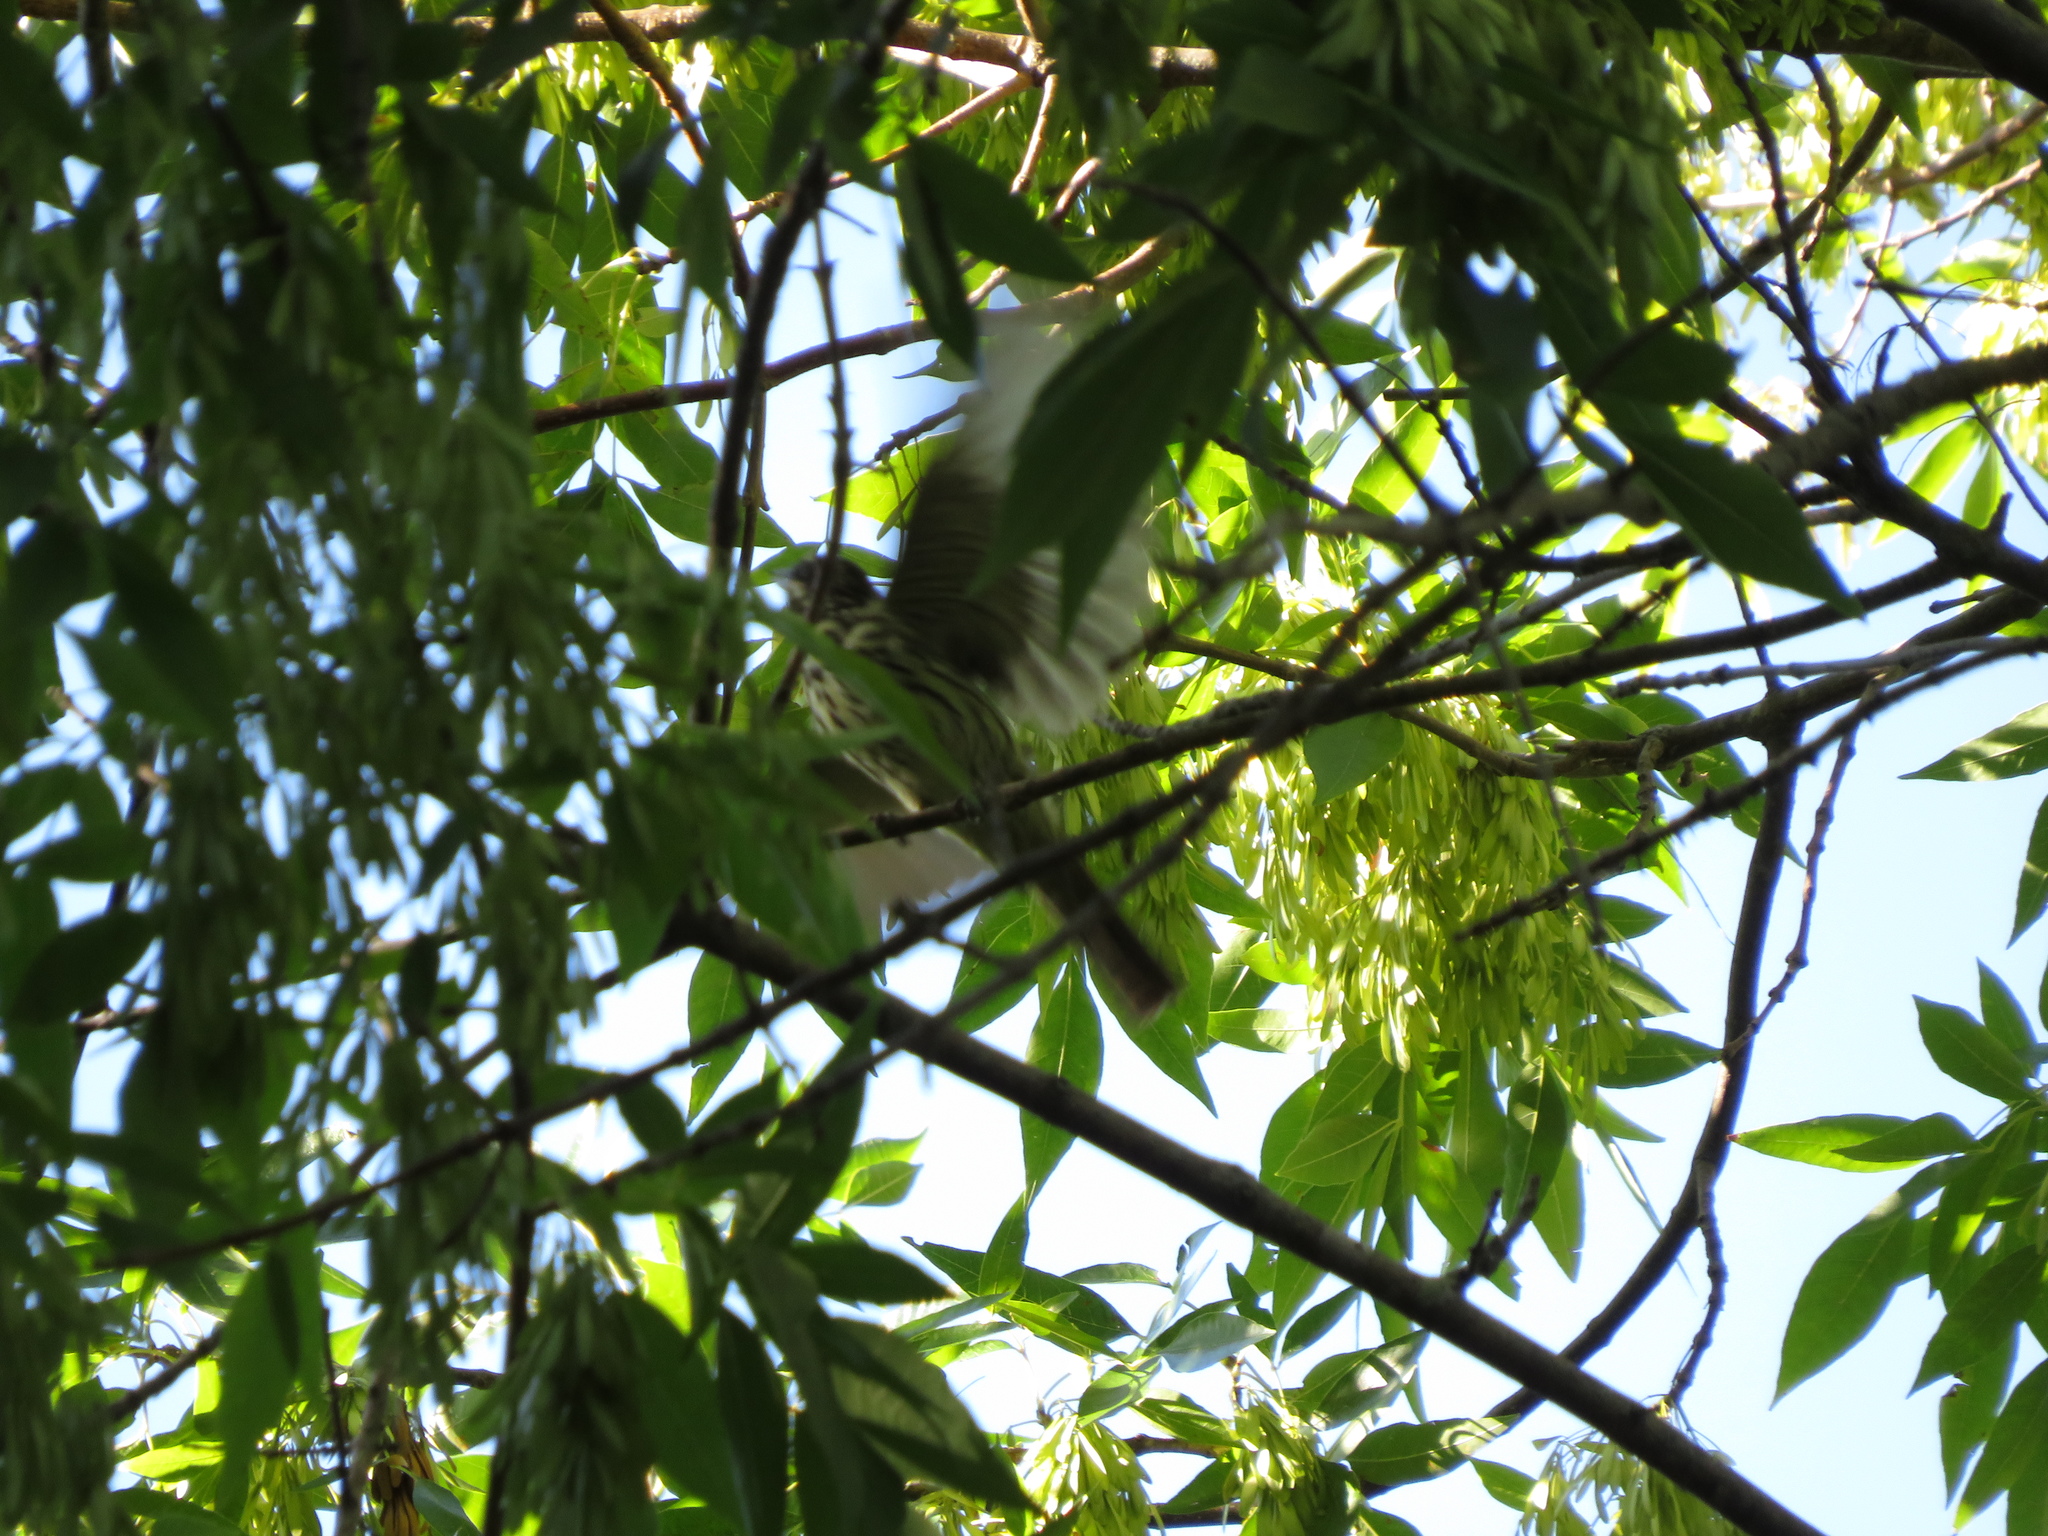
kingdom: Animalia
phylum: Chordata
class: Aves
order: Passeriformes
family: Tyrannidae
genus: Myiodynastes
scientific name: Myiodynastes maculatus
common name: Streaked flycatcher
